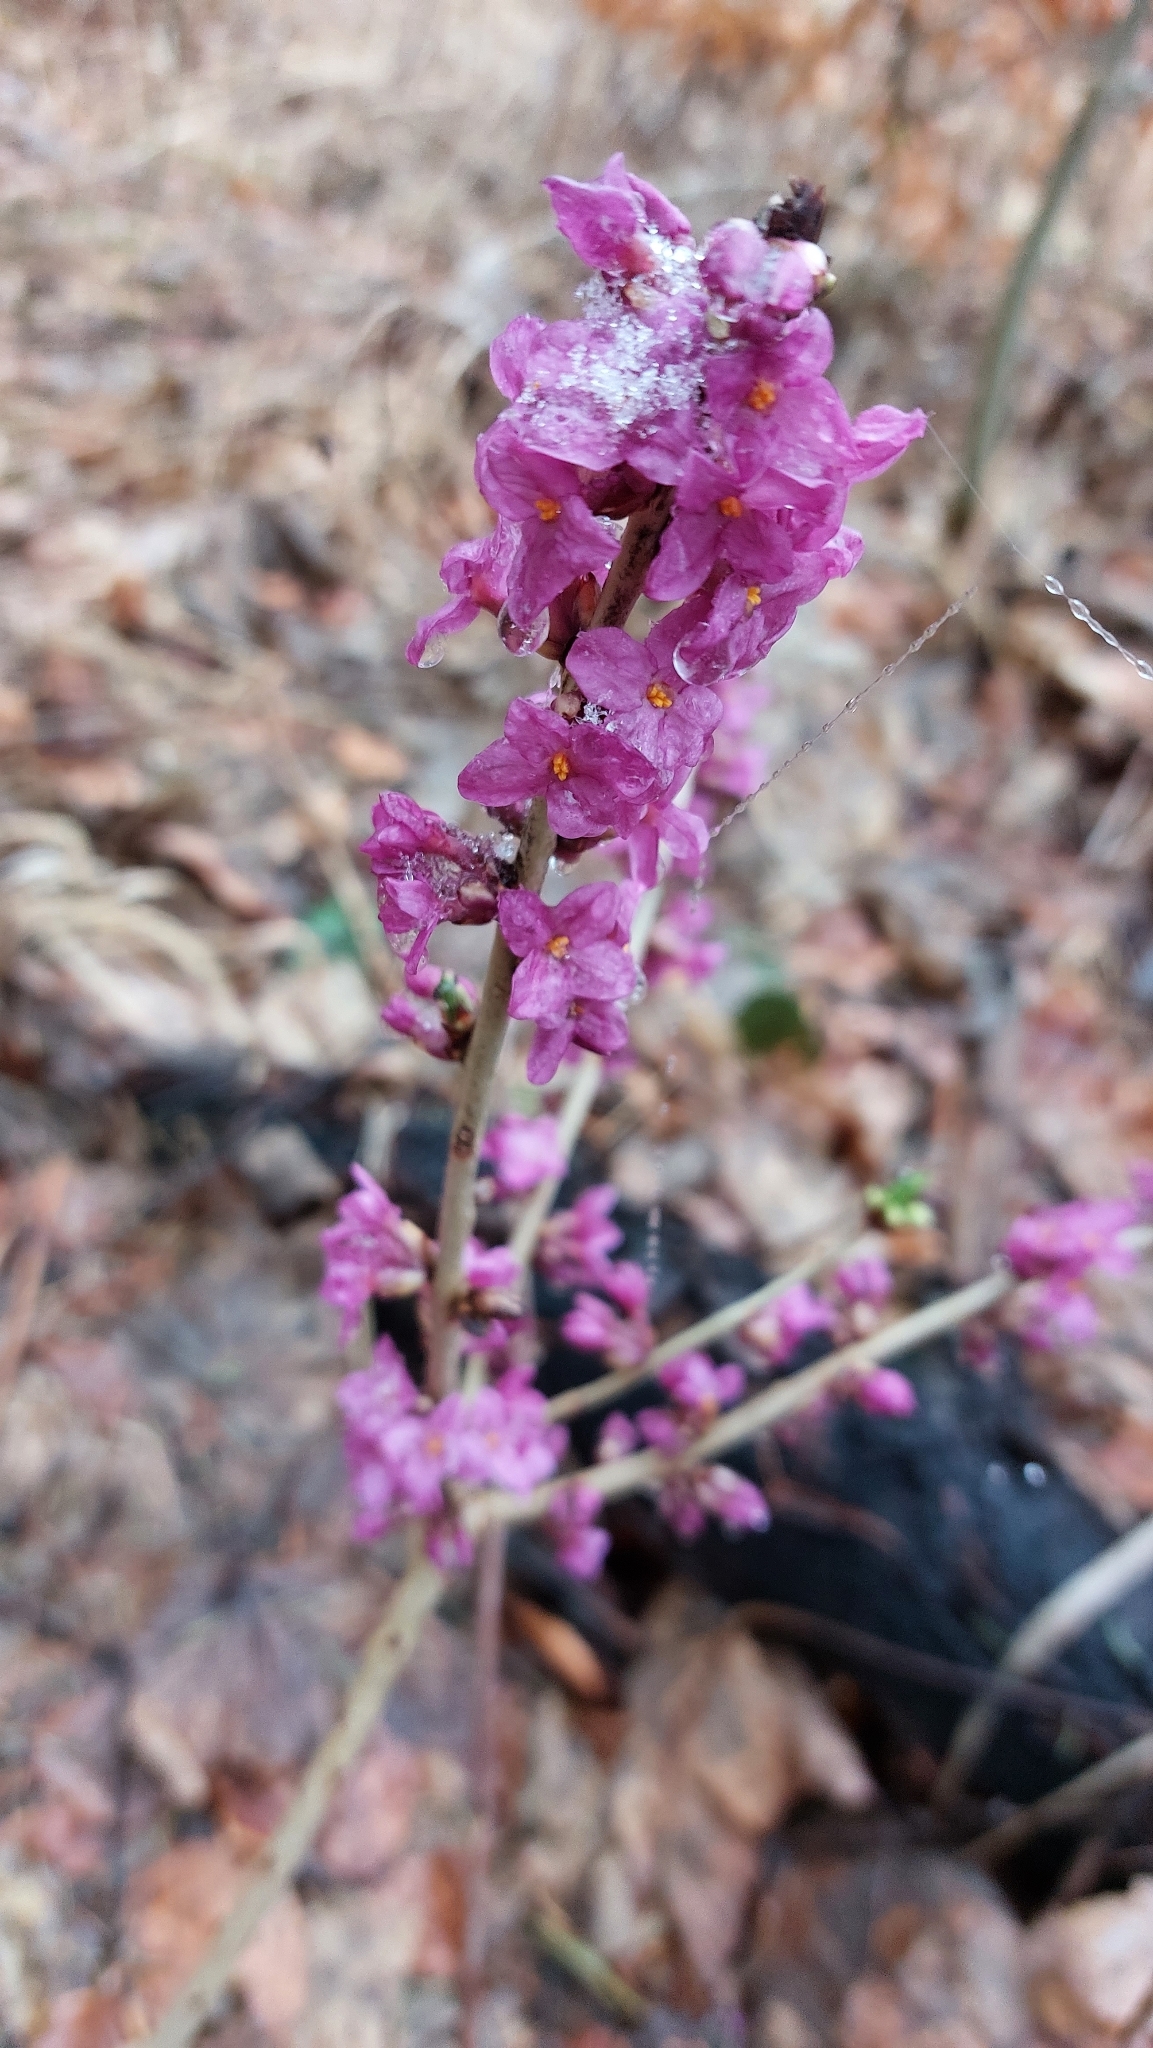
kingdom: Plantae
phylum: Tracheophyta
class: Magnoliopsida
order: Malvales
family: Thymelaeaceae
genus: Daphne
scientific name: Daphne mezereum
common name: Mezereon
